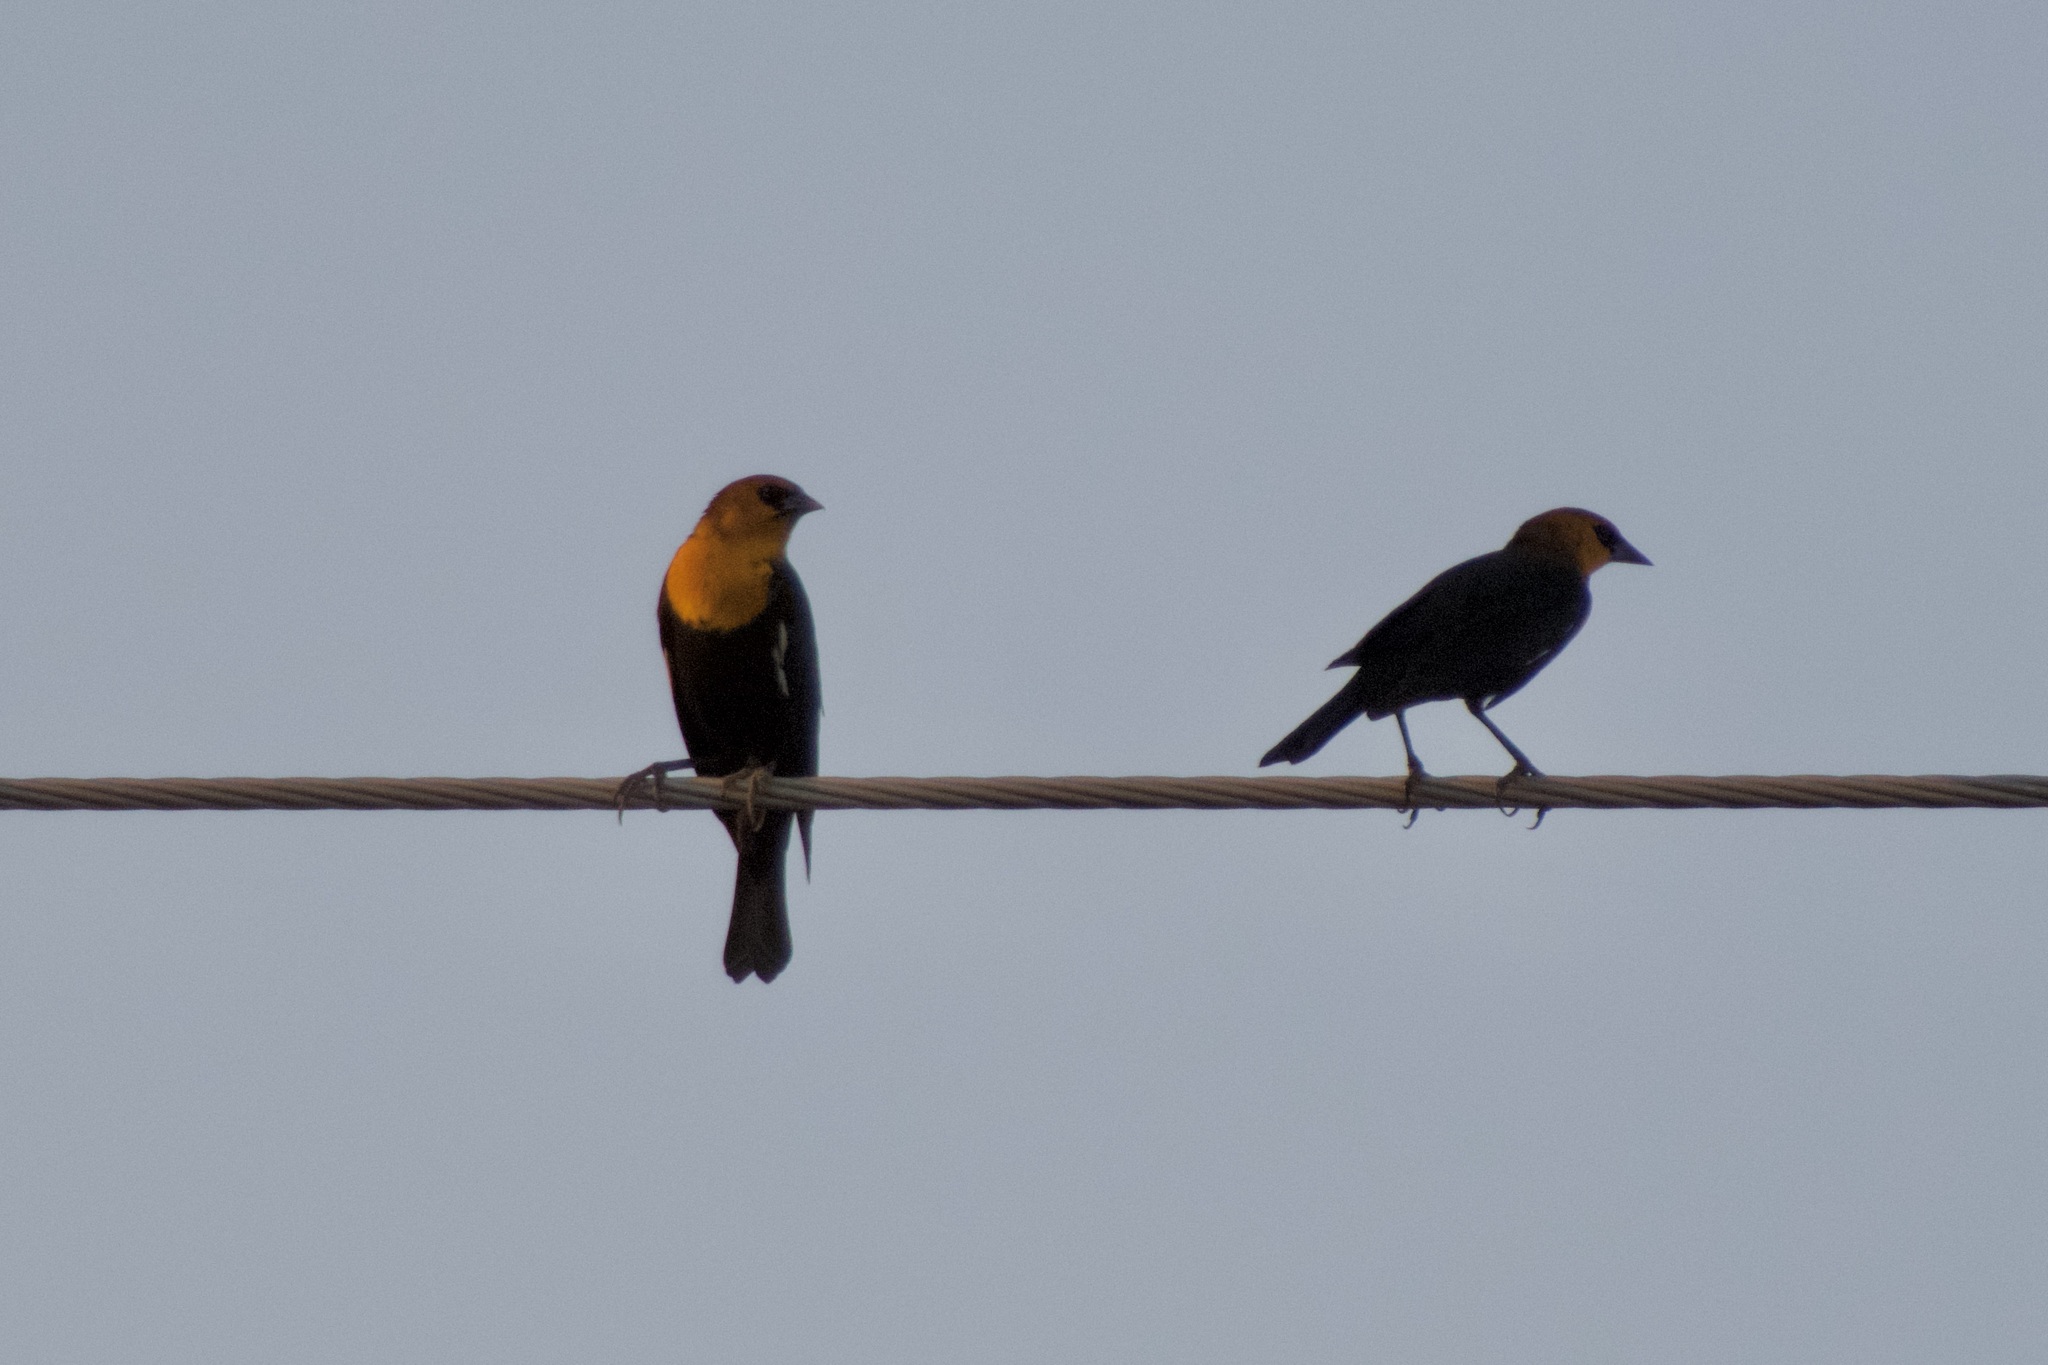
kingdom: Animalia
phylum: Chordata
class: Aves
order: Passeriformes
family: Icteridae
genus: Xanthocephalus
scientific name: Xanthocephalus xanthocephalus
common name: Yellow-headed blackbird
